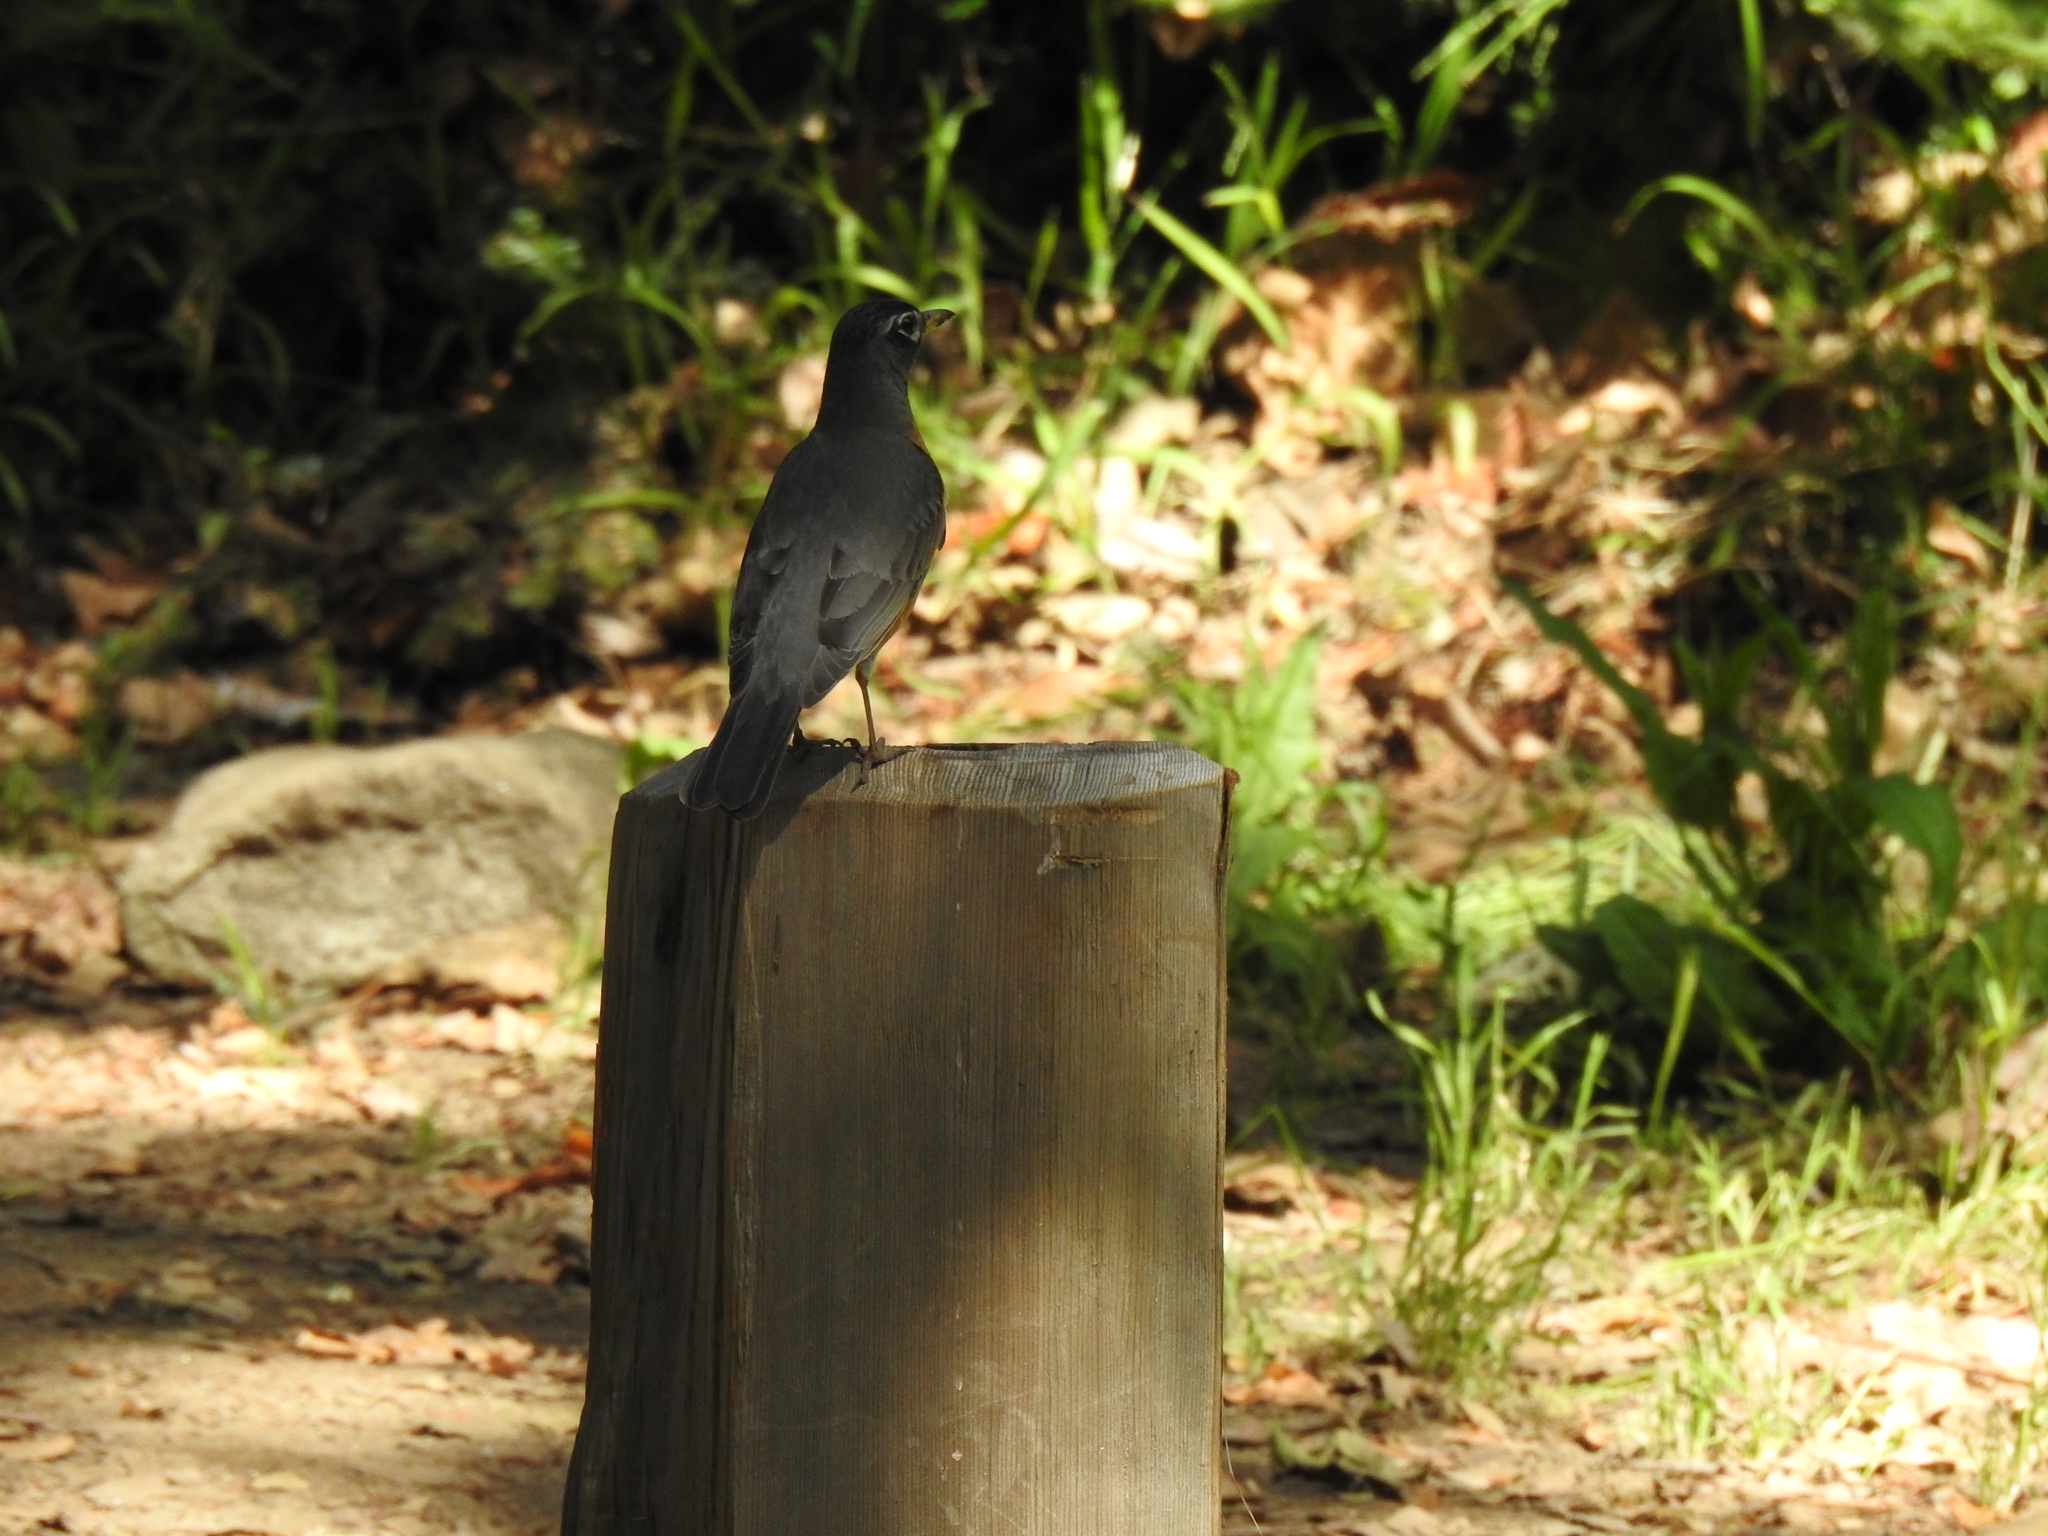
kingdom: Animalia
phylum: Chordata
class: Aves
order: Passeriformes
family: Turdidae
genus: Turdus
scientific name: Turdus migratorius
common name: American robin
